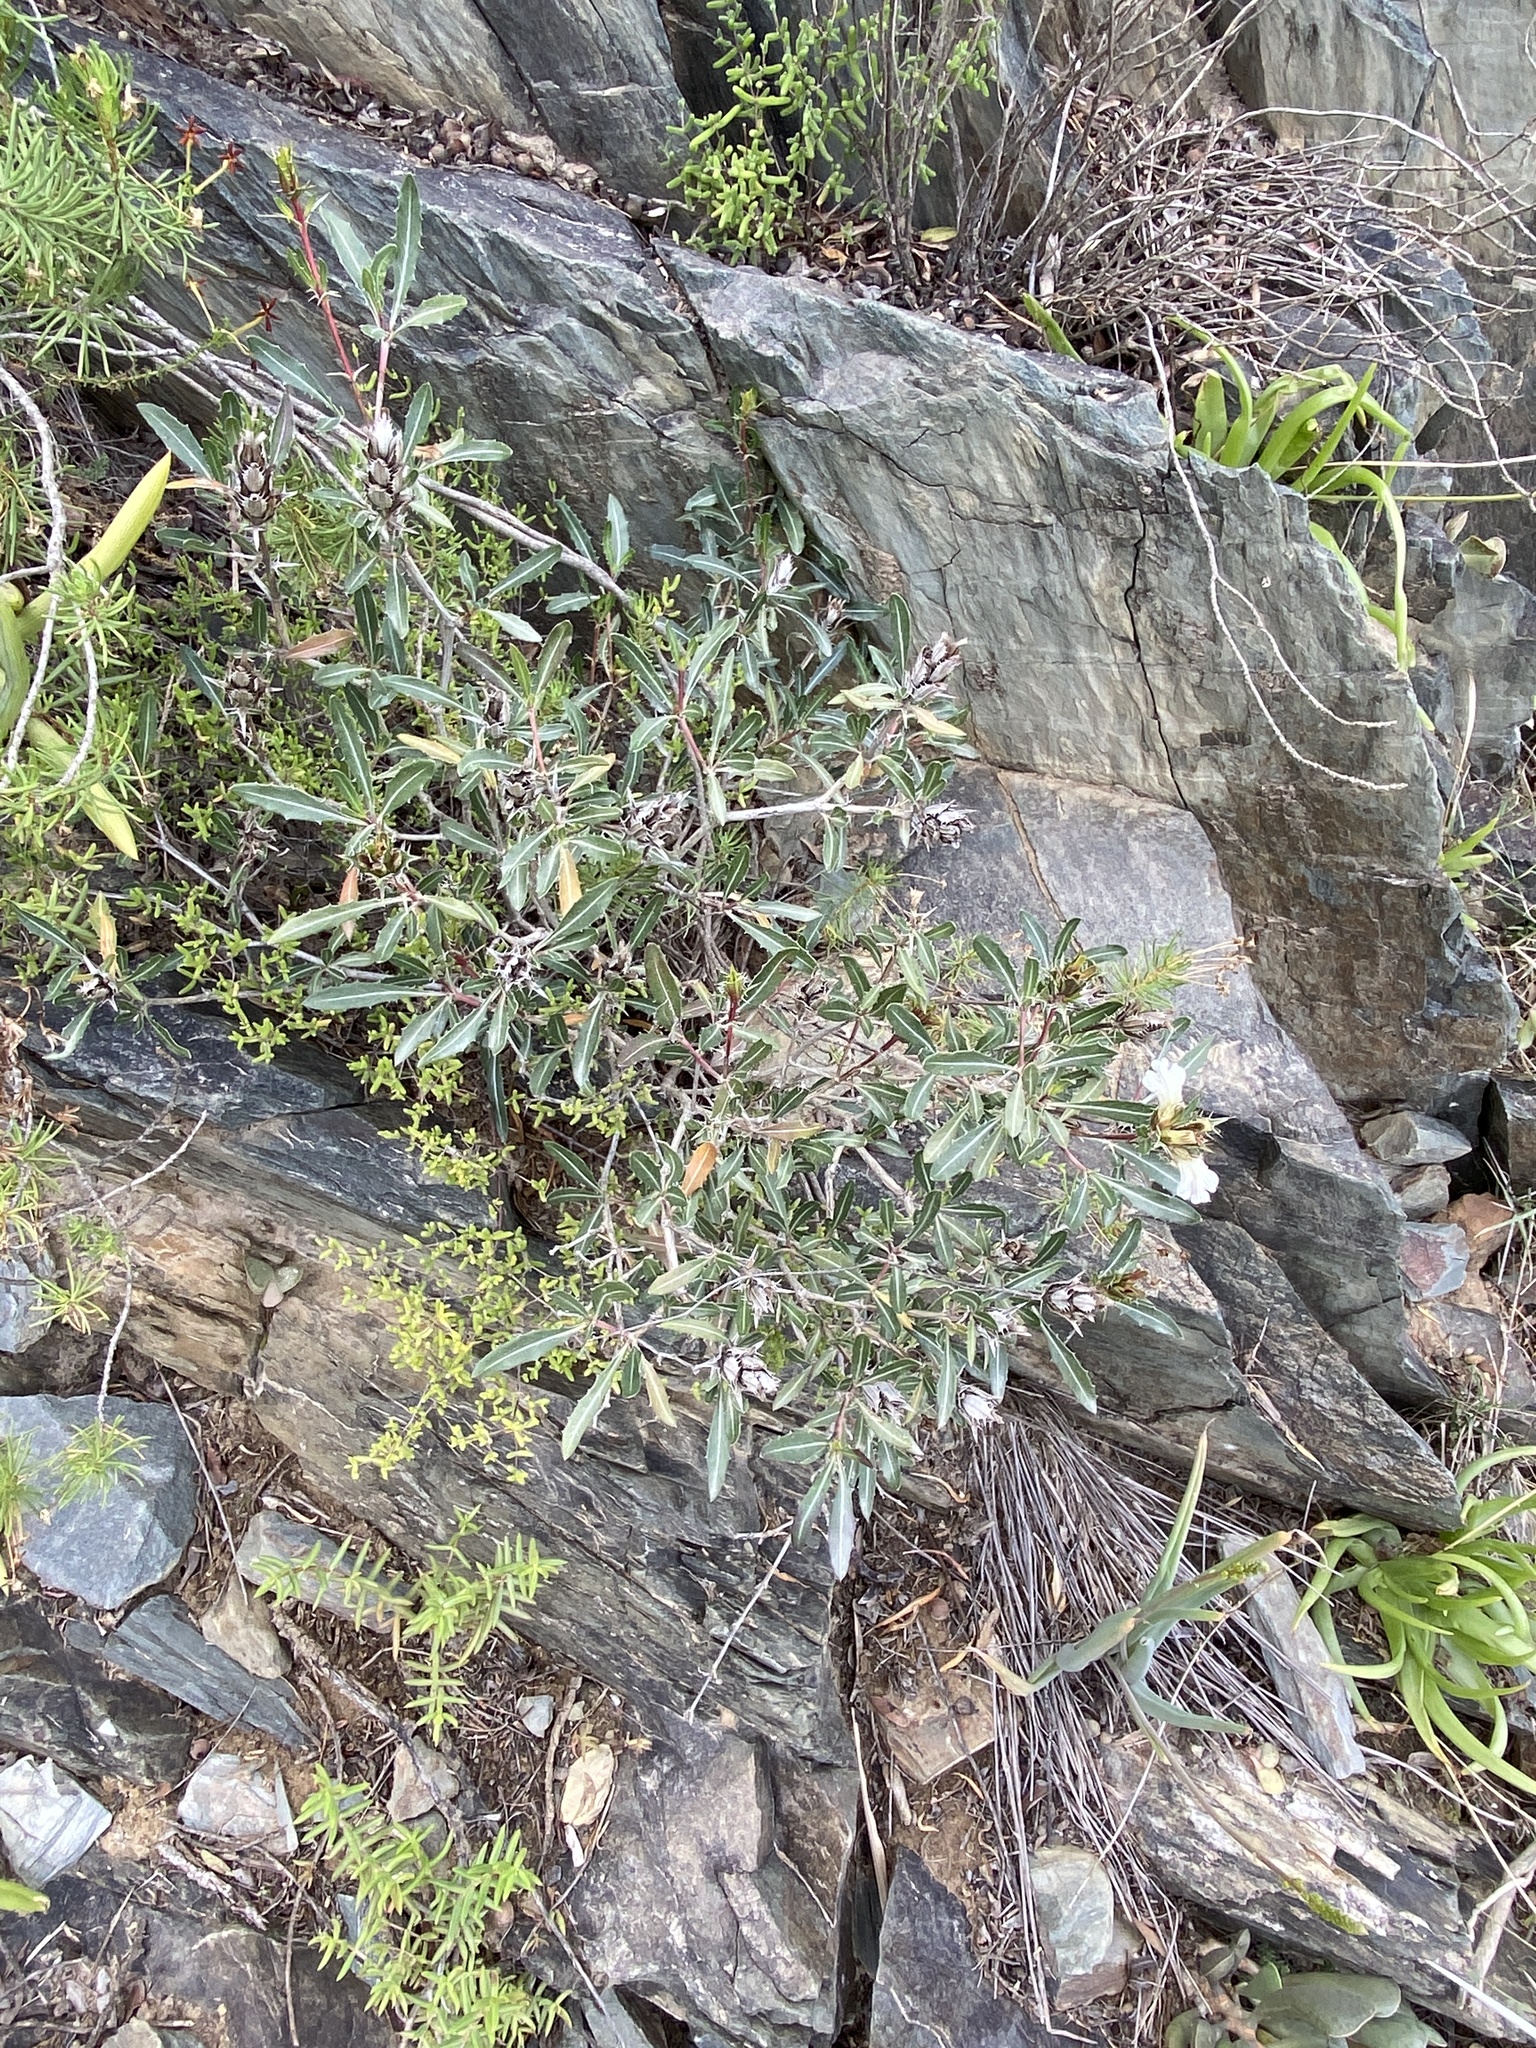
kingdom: Plantae
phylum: Tracheophyta
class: Magnoliopsida
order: Lamiales
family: Acanthaceae
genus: Blepharis
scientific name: Blepharis capensis
